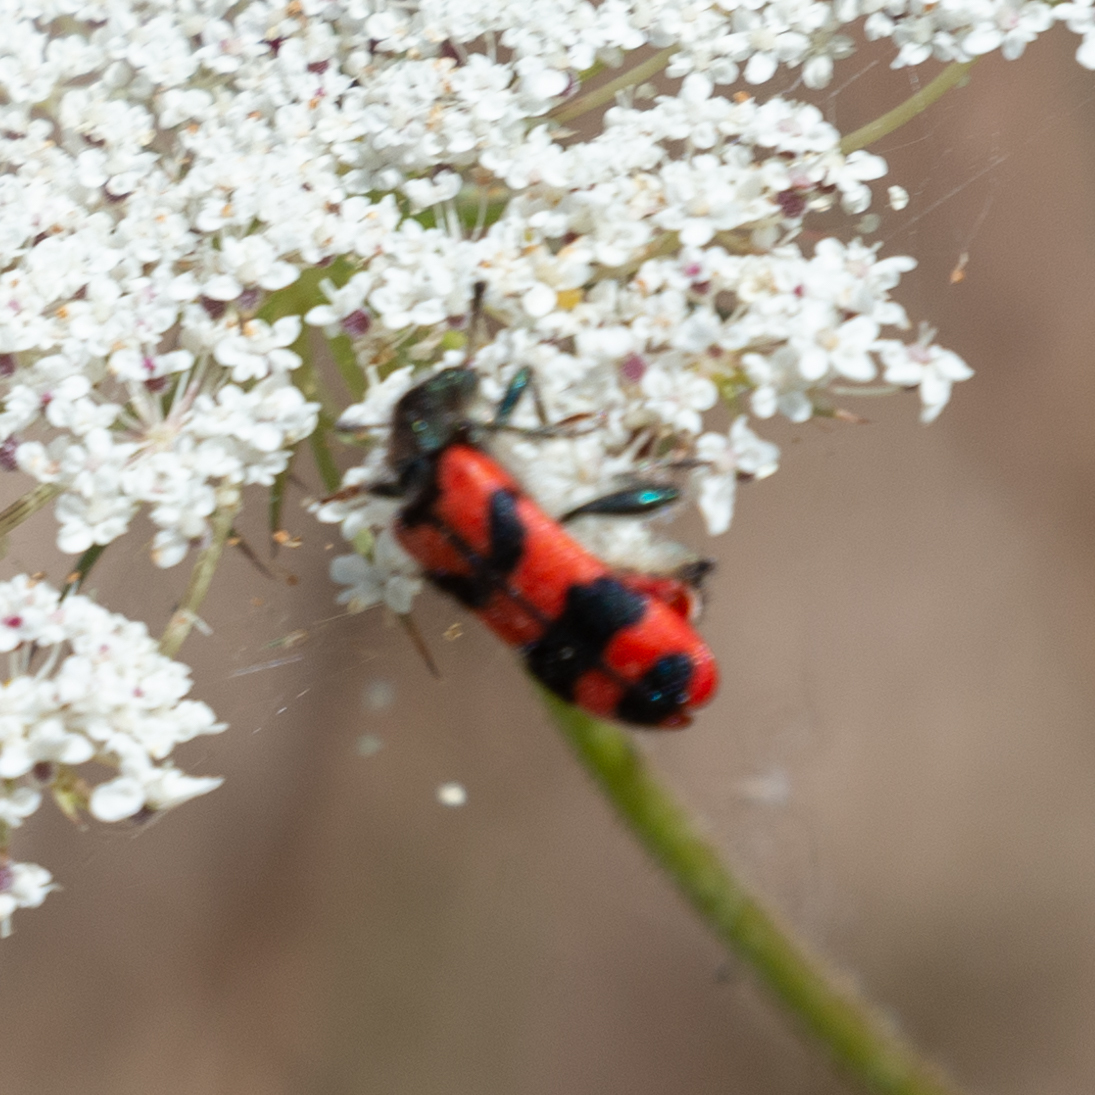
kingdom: Animalia
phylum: Arthropoda
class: Insecta
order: Coleoptera
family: Cleridae
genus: Trichodes
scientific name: Trichodes alvearius
